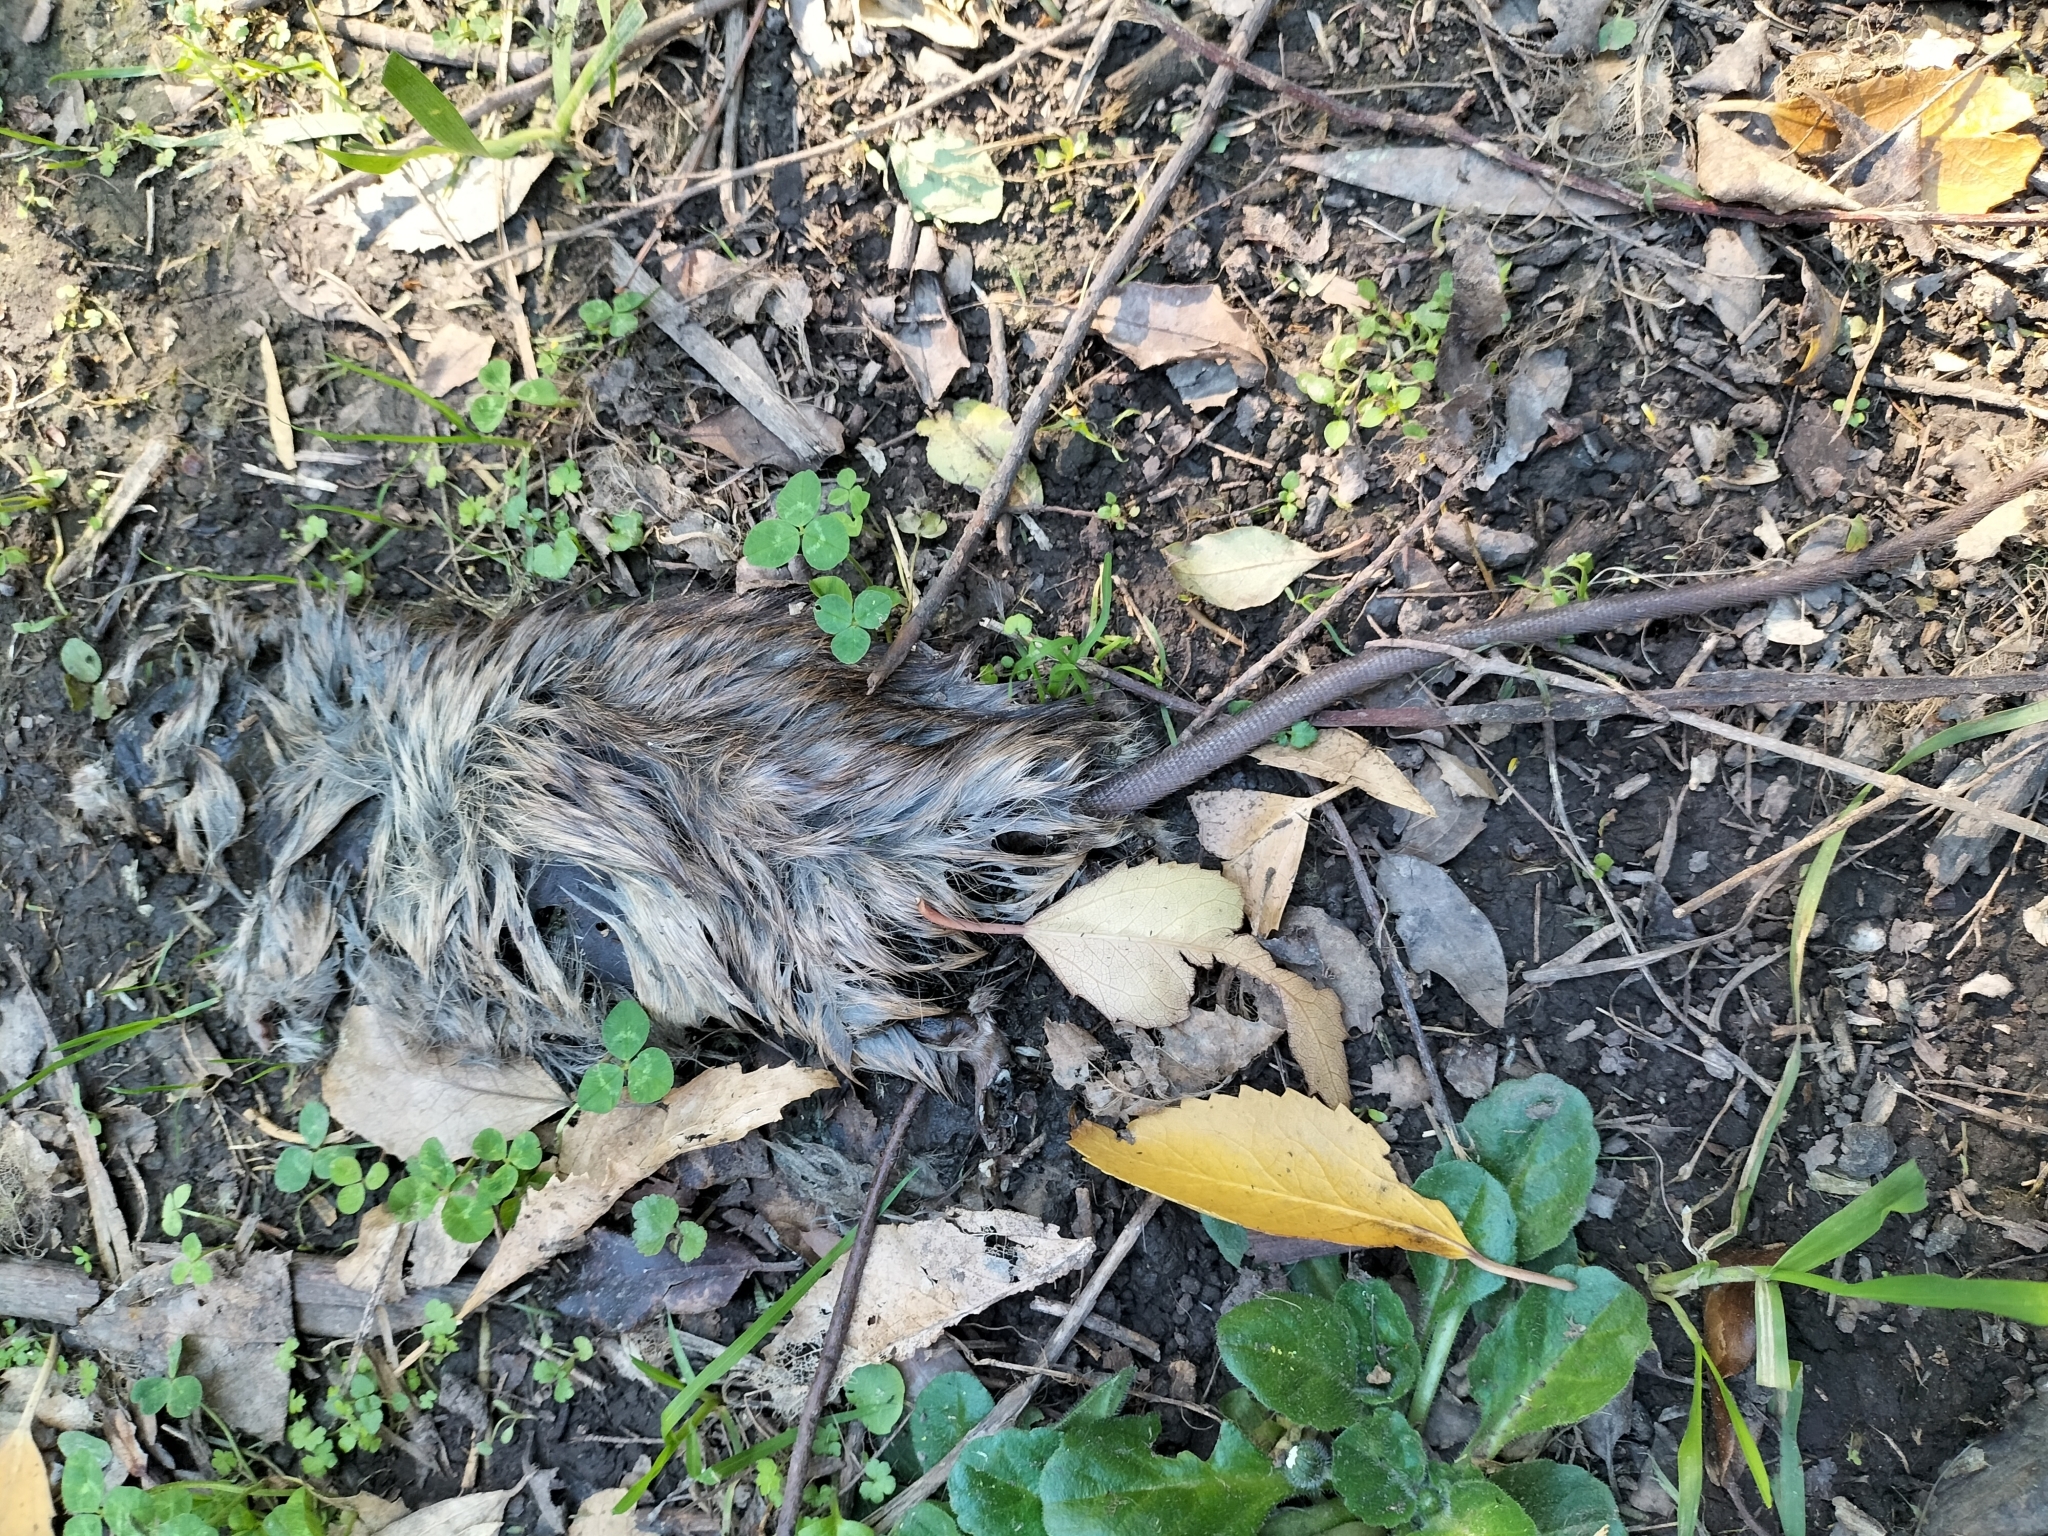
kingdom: Animalia
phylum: Chordata
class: Mammalia
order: Rodentia
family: Muridae
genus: Rattus
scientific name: Rattus rattus
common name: Black rat
